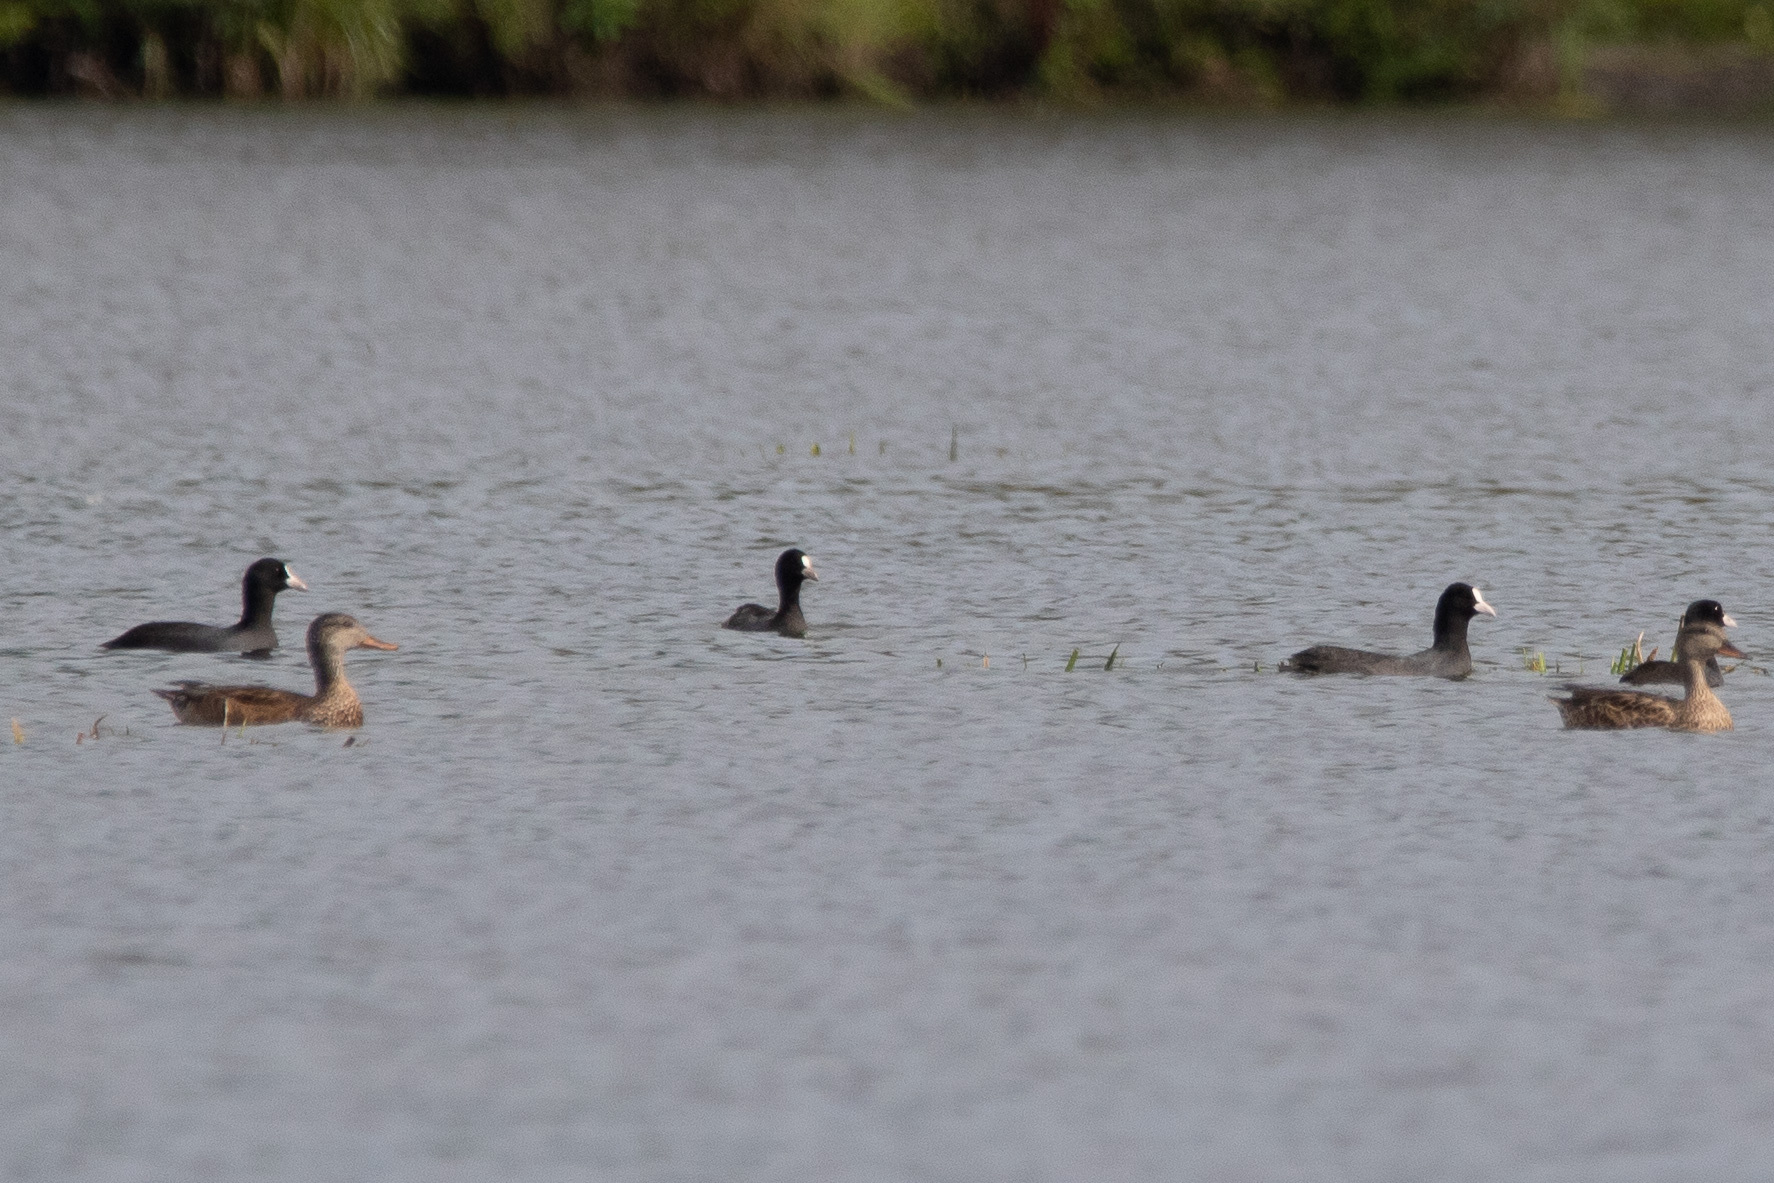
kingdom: Animalia
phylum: Chordata
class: Aves
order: Gruiformes
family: Rallidae
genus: Fulica
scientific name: Fulica atra
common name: Eurasian coot
